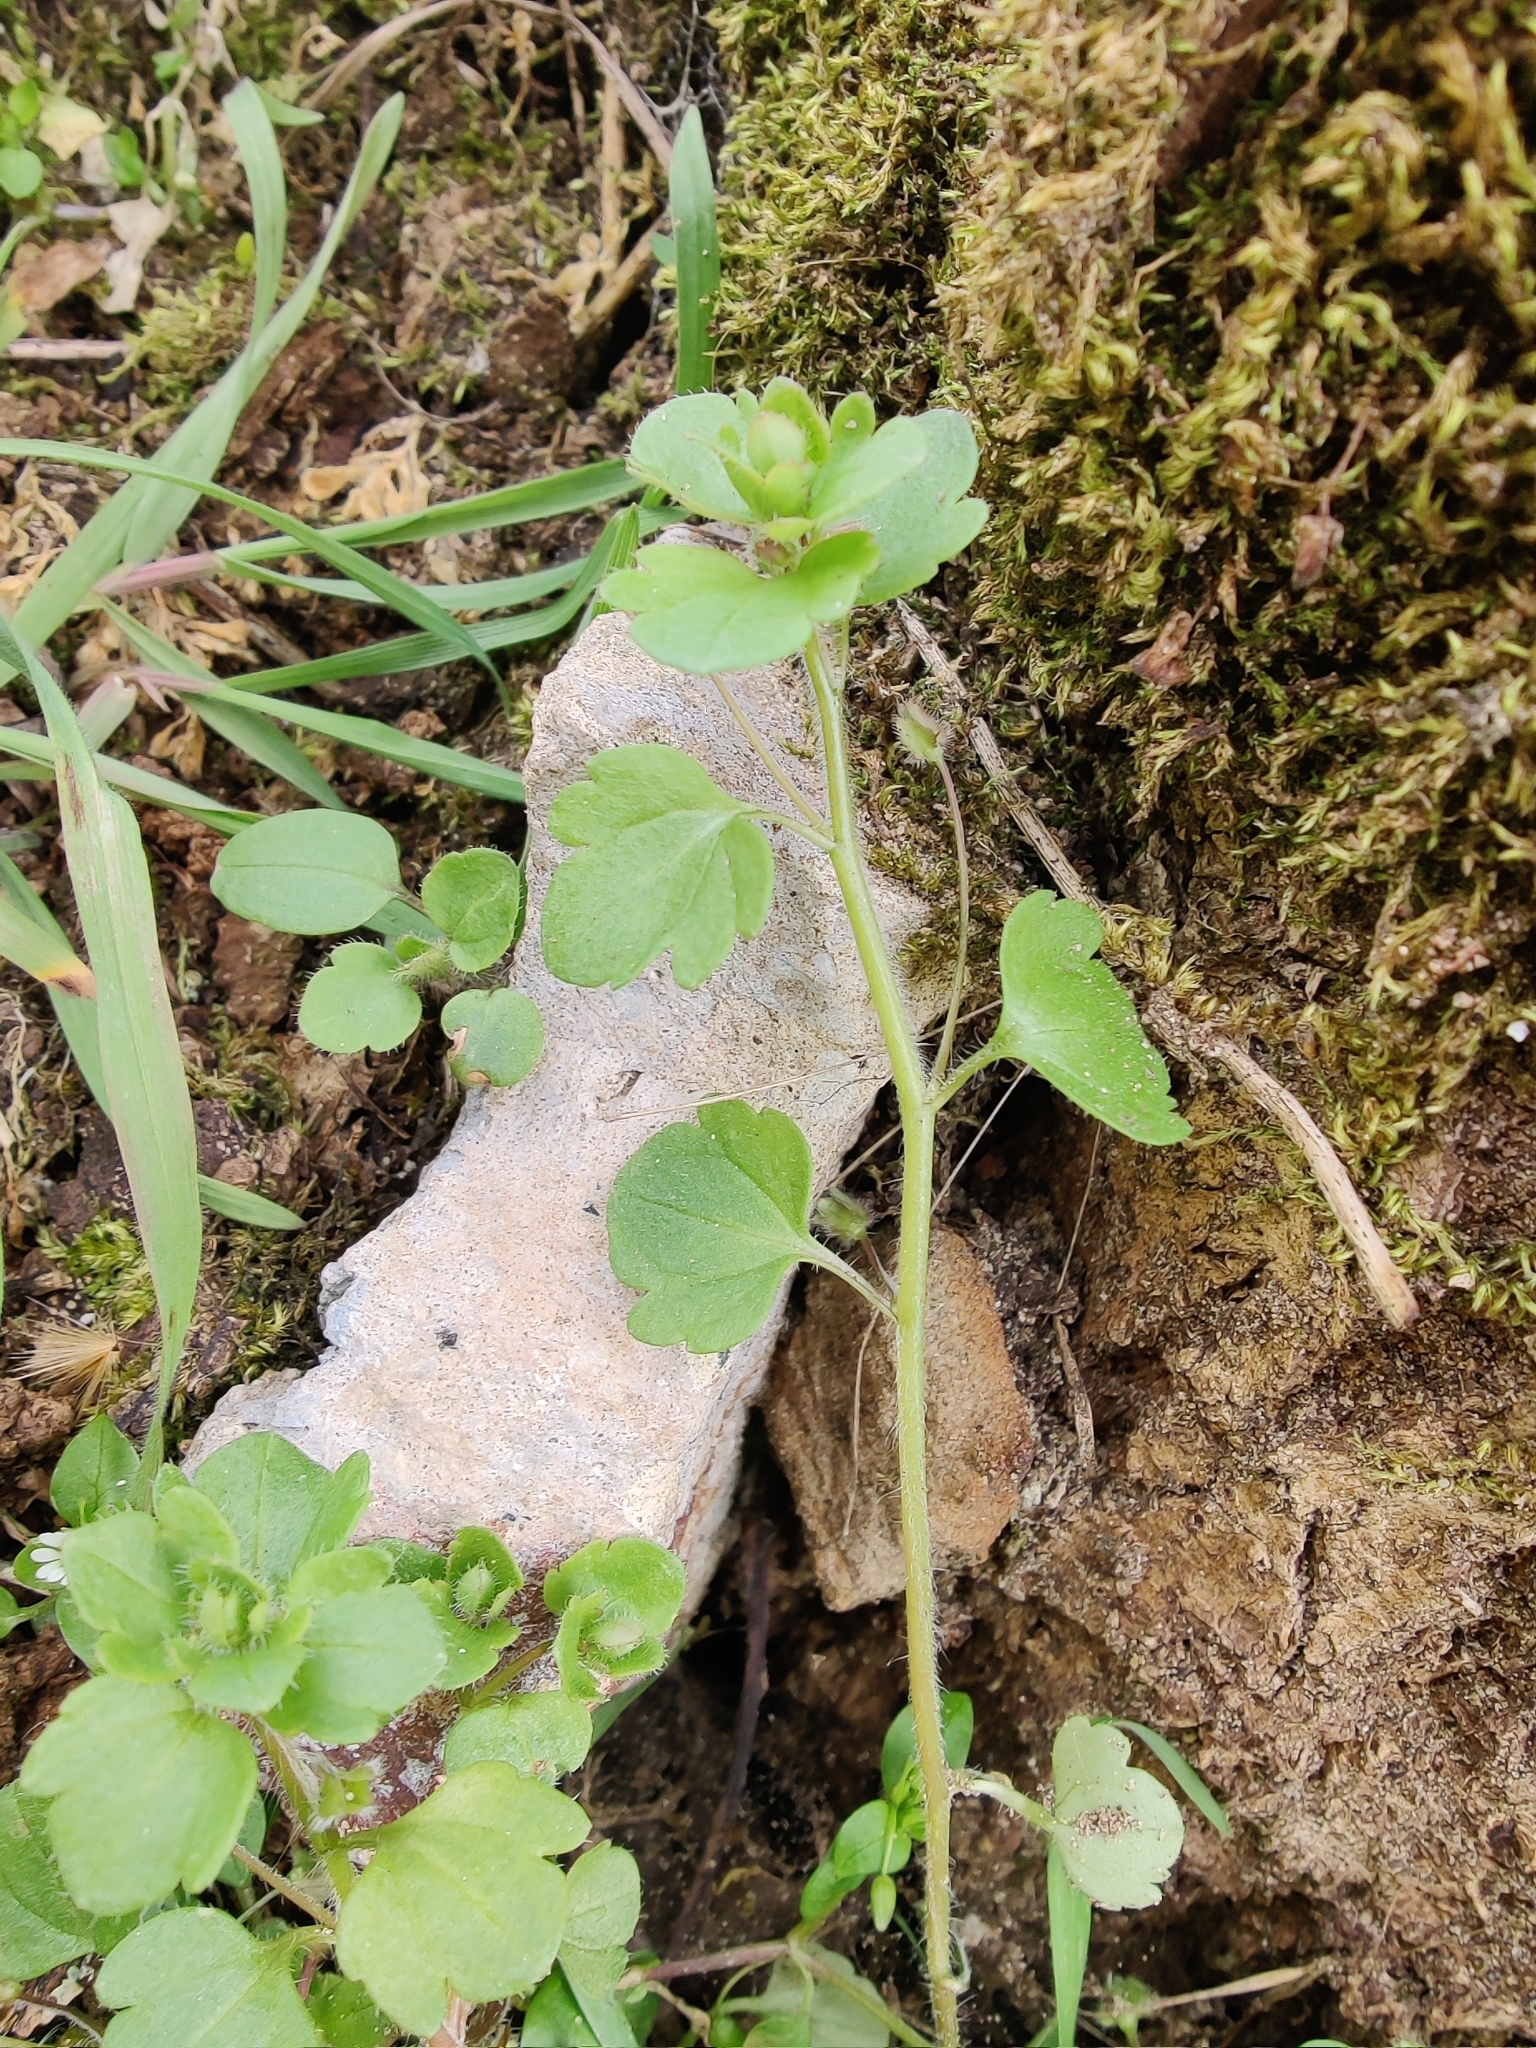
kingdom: Plantae
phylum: Tracheophyta
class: Magnoliopsida
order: Lamiales
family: Plantaginaceae
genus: Veronica
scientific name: Veronica hederifolia
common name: Ivy-leaved speedwell
